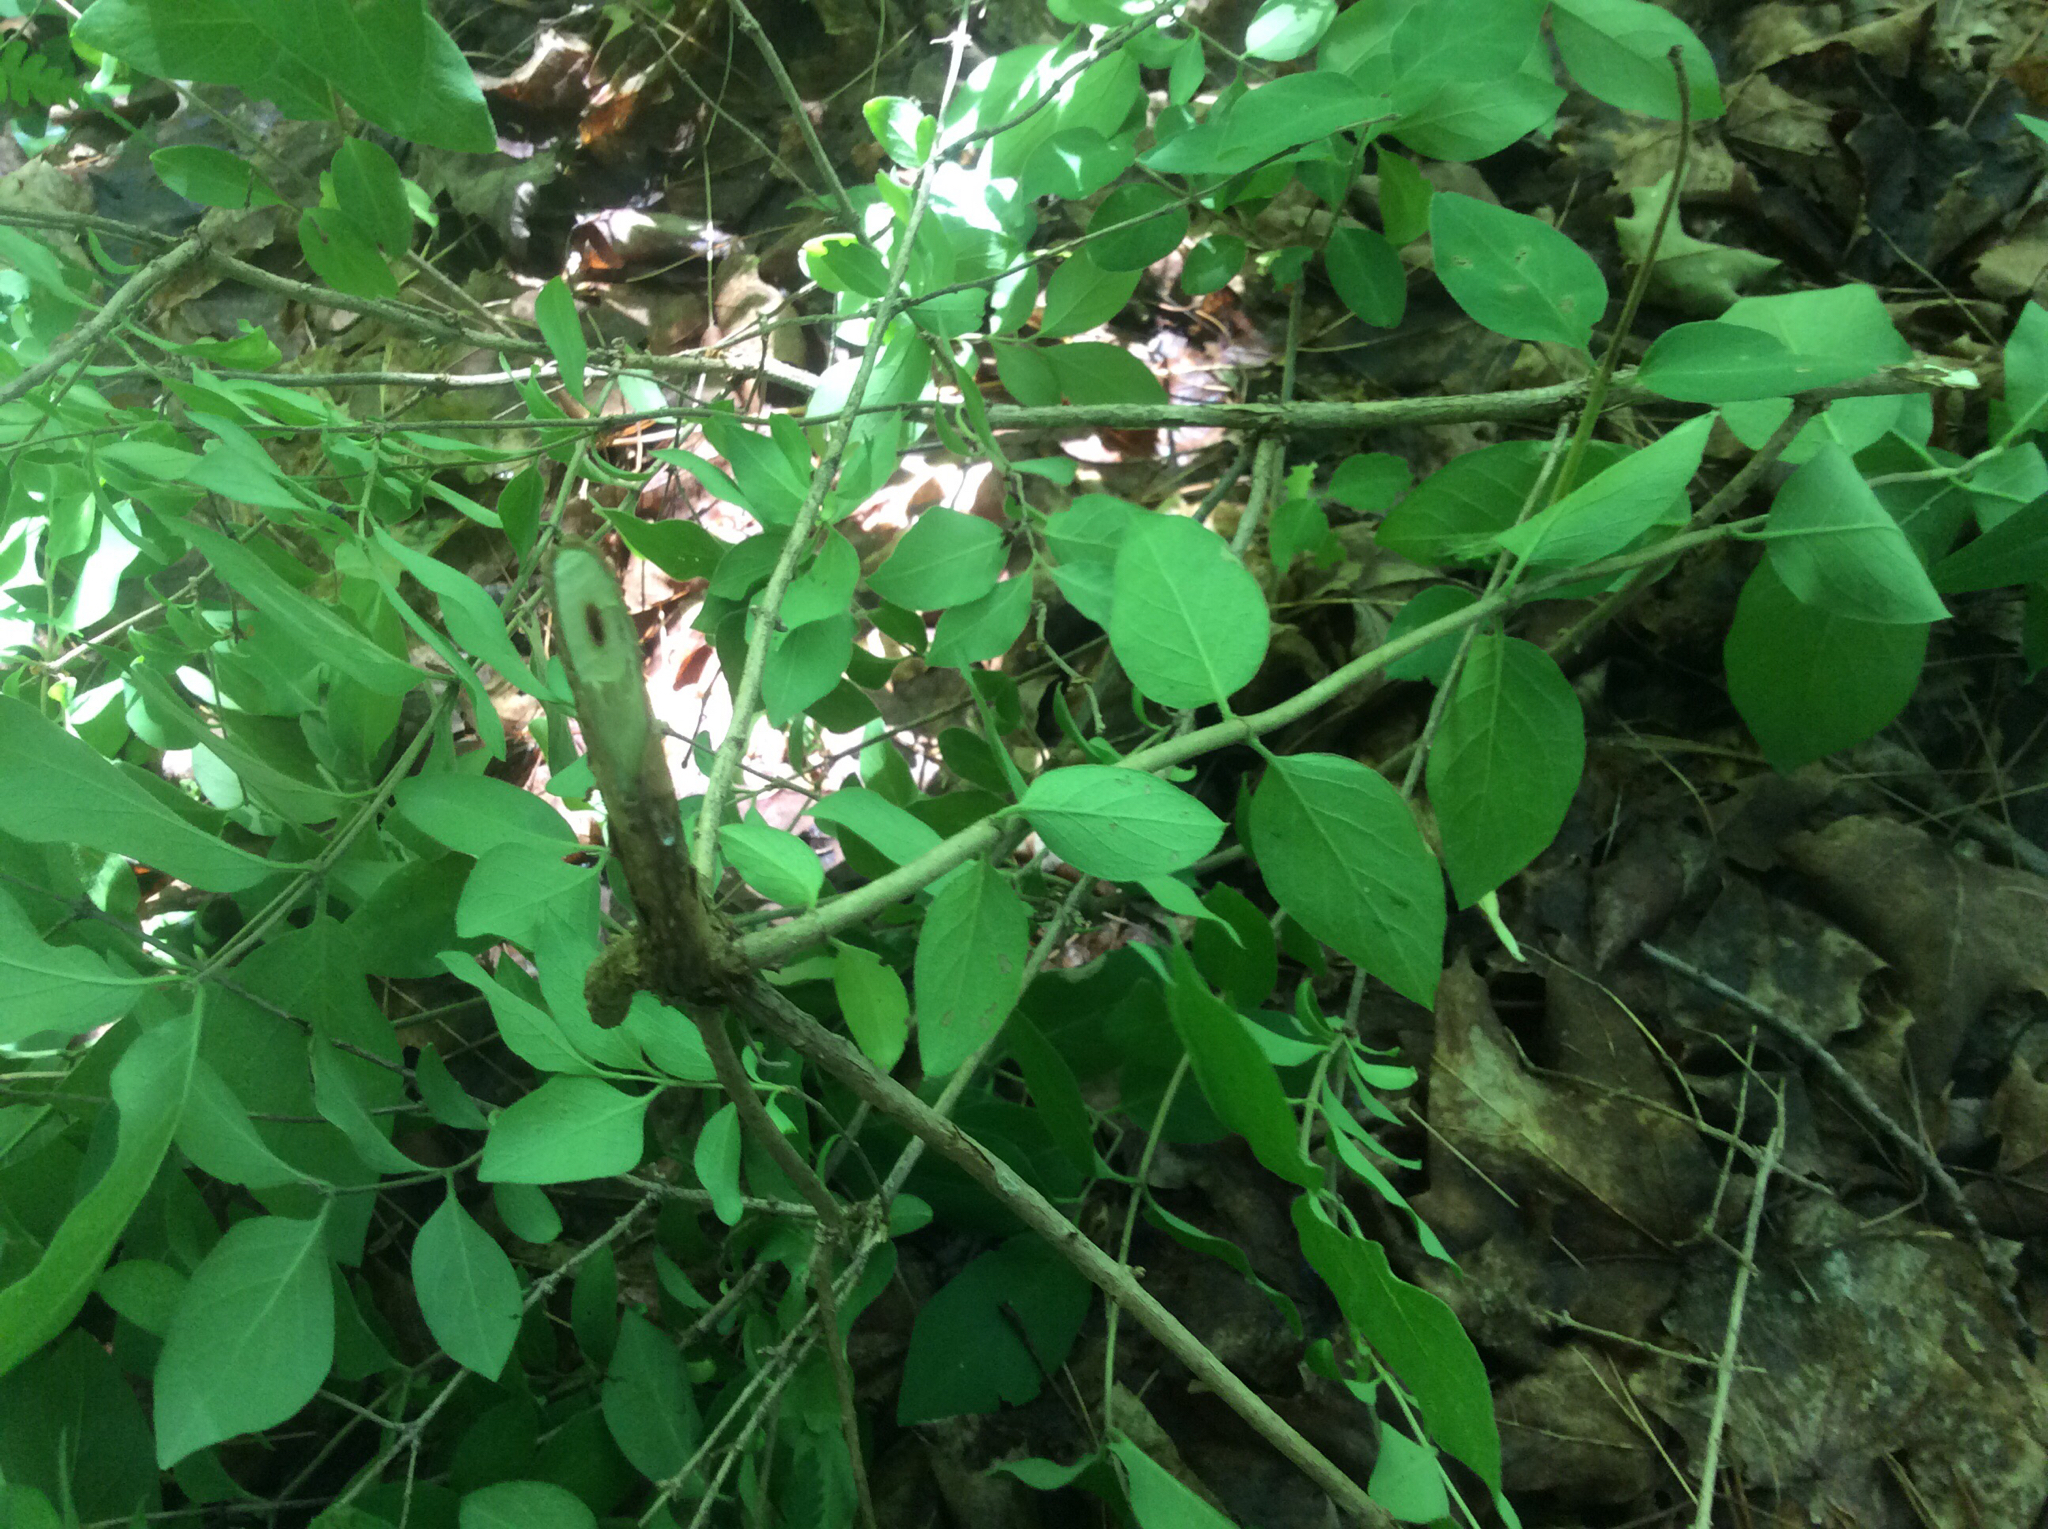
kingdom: Plantae
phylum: Tracheophyta
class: Magnoliopsida
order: Dipsacales
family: Caprifoliaceae
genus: Lonicera
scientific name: Lonicera morrowii
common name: Morrow's honeysuckle
